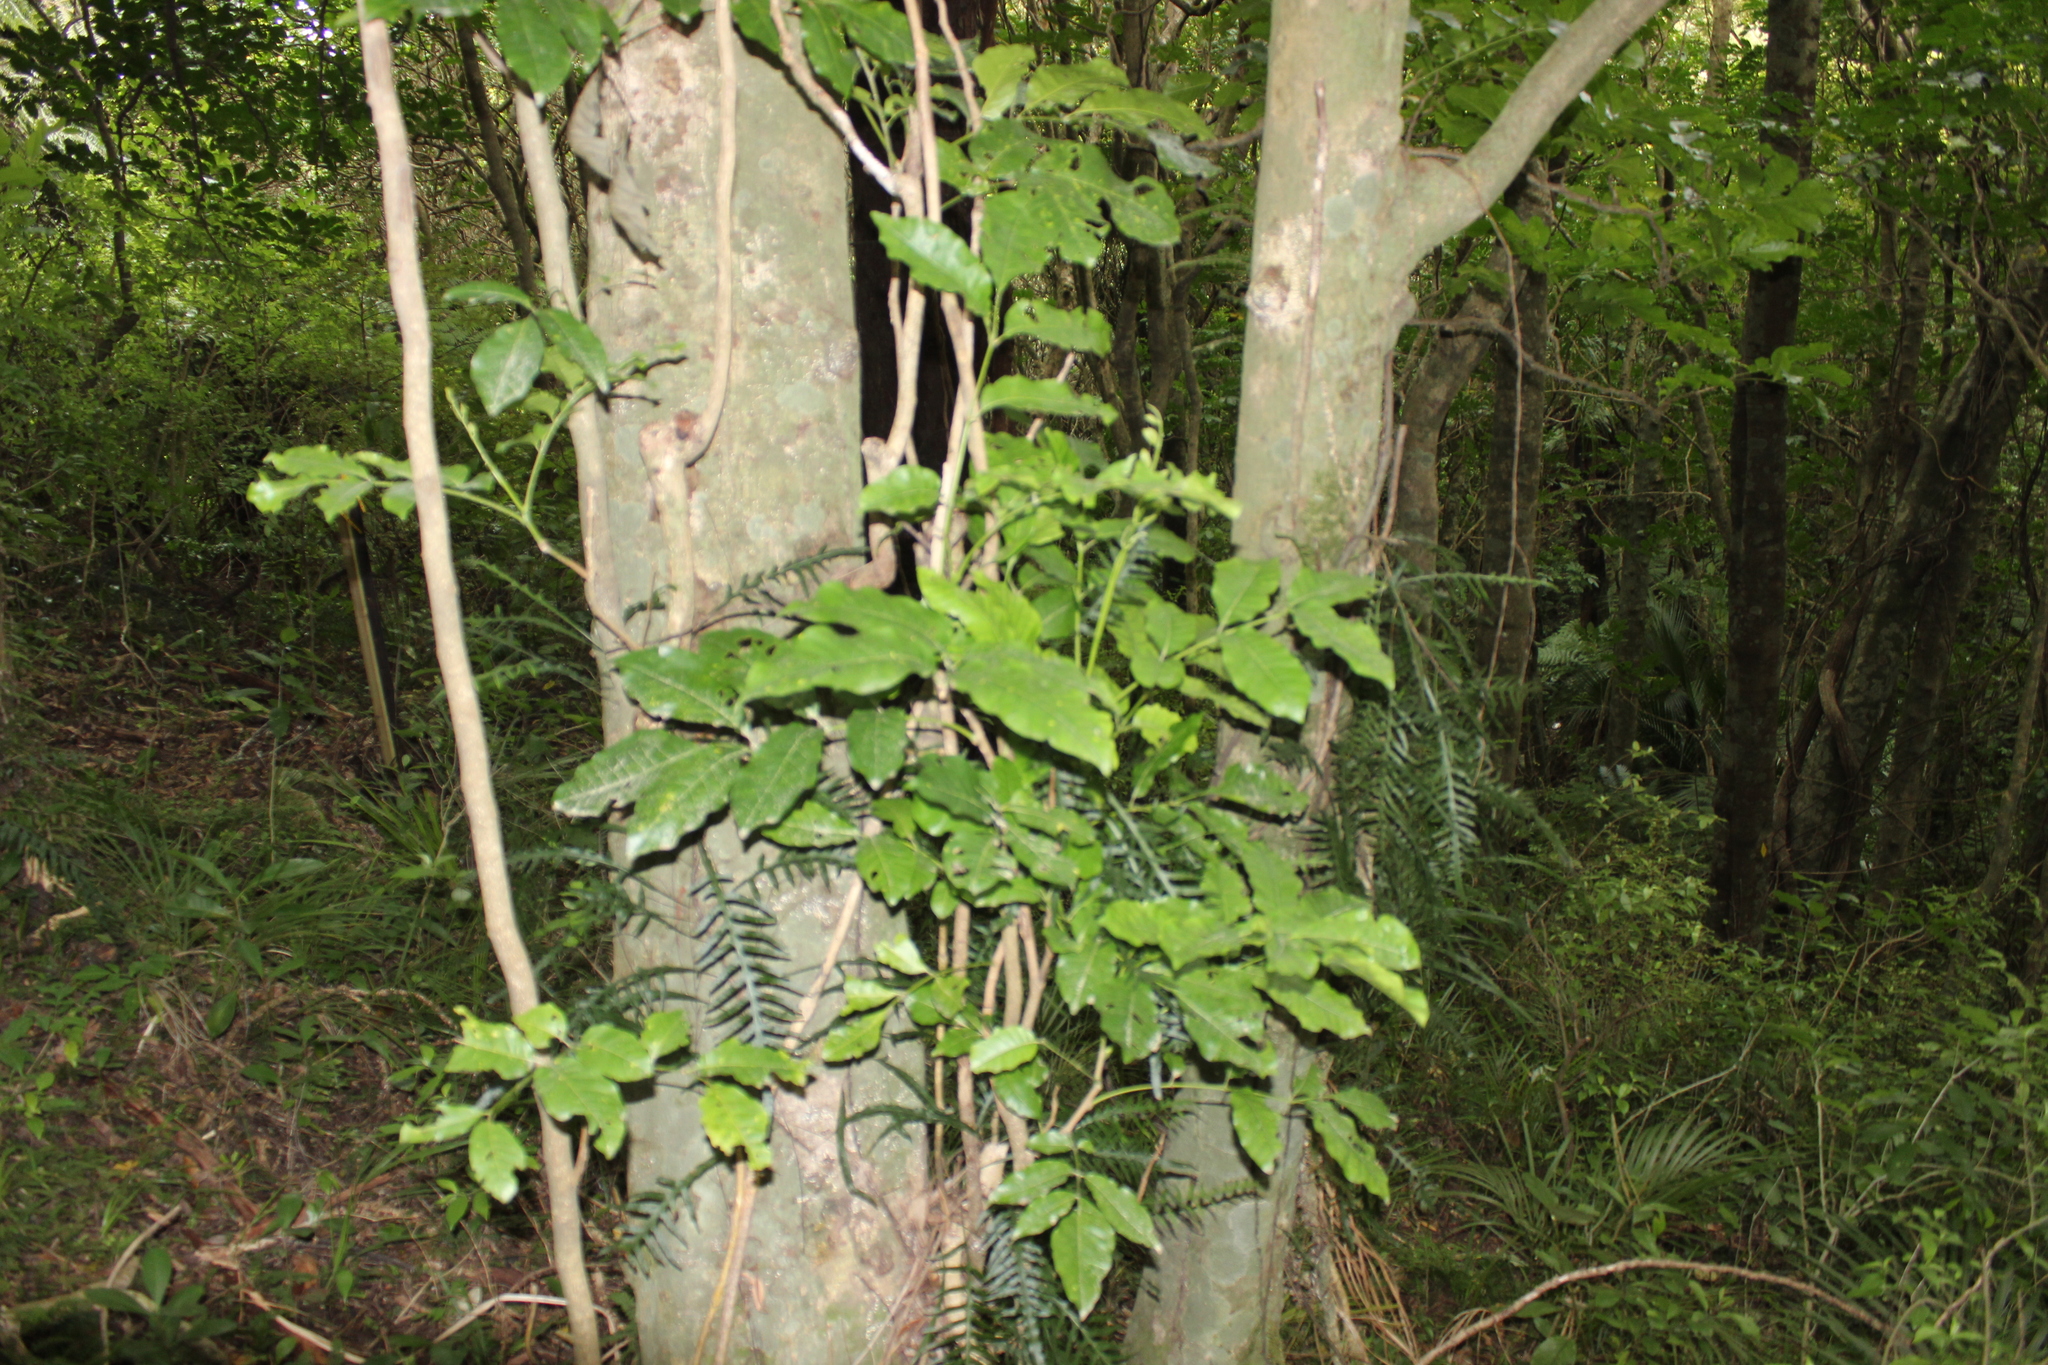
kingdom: Plantae
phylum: Tracheophyta
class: Magnoliopsida
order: Sapindales
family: Meliaceae
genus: Didymocheton
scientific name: Didymocheton spectabilis
